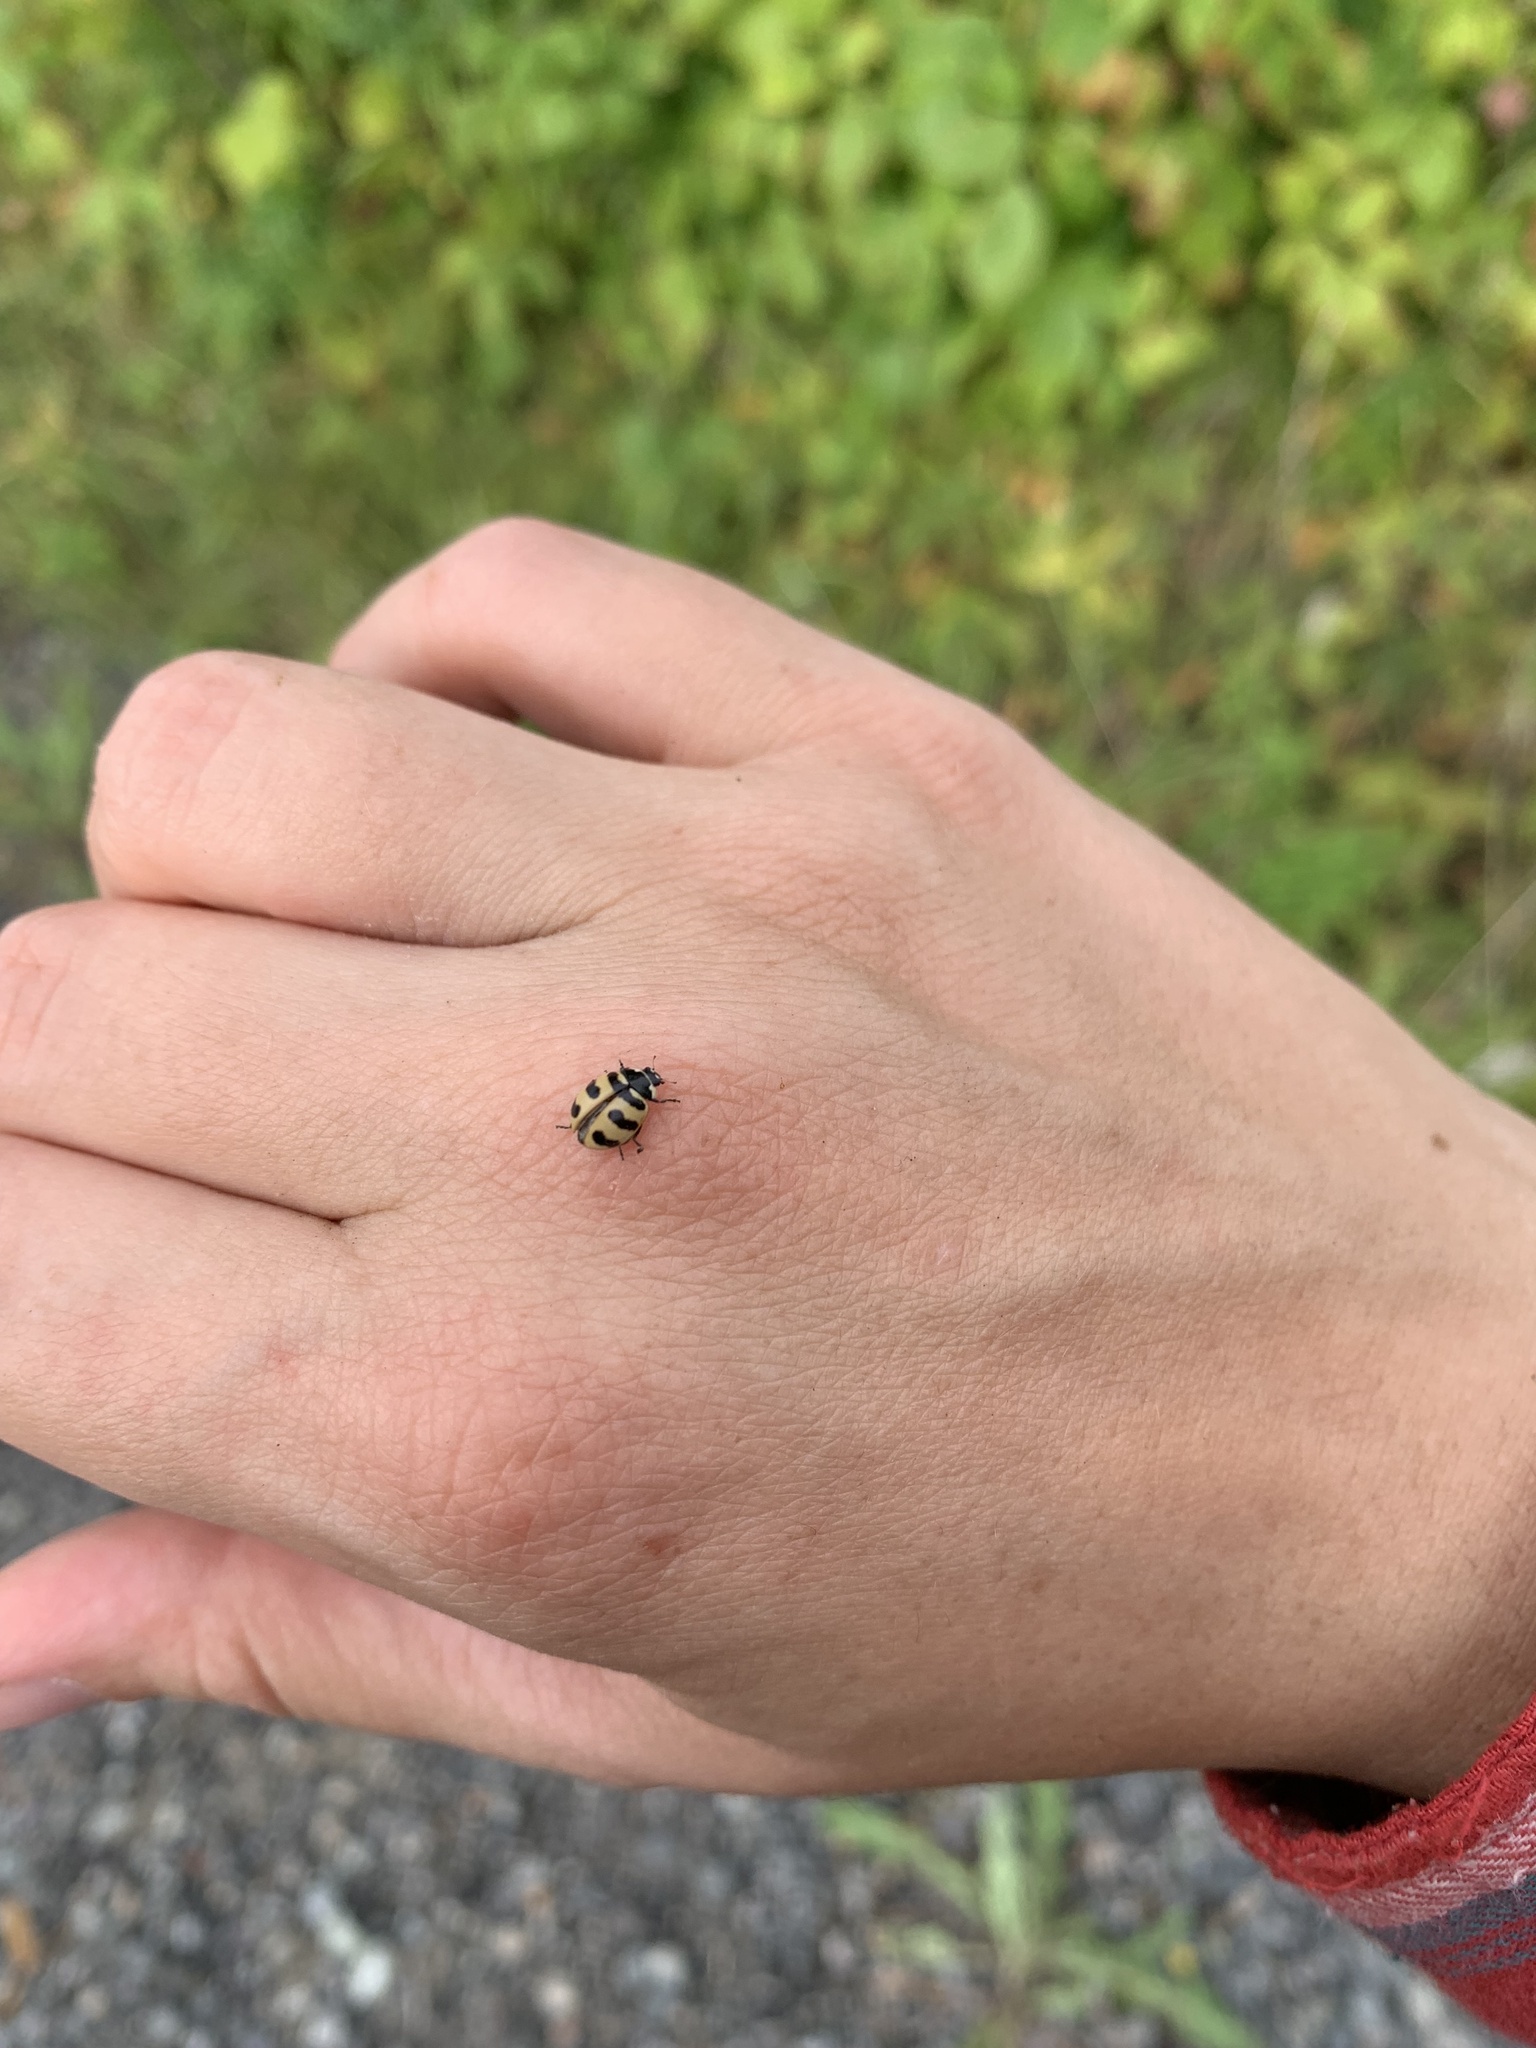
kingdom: Animalia
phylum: Arthropoda
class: Insecta
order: Coleoptera
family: Coccinellidae
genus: Coccinella
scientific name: Coccinella trifasciata
